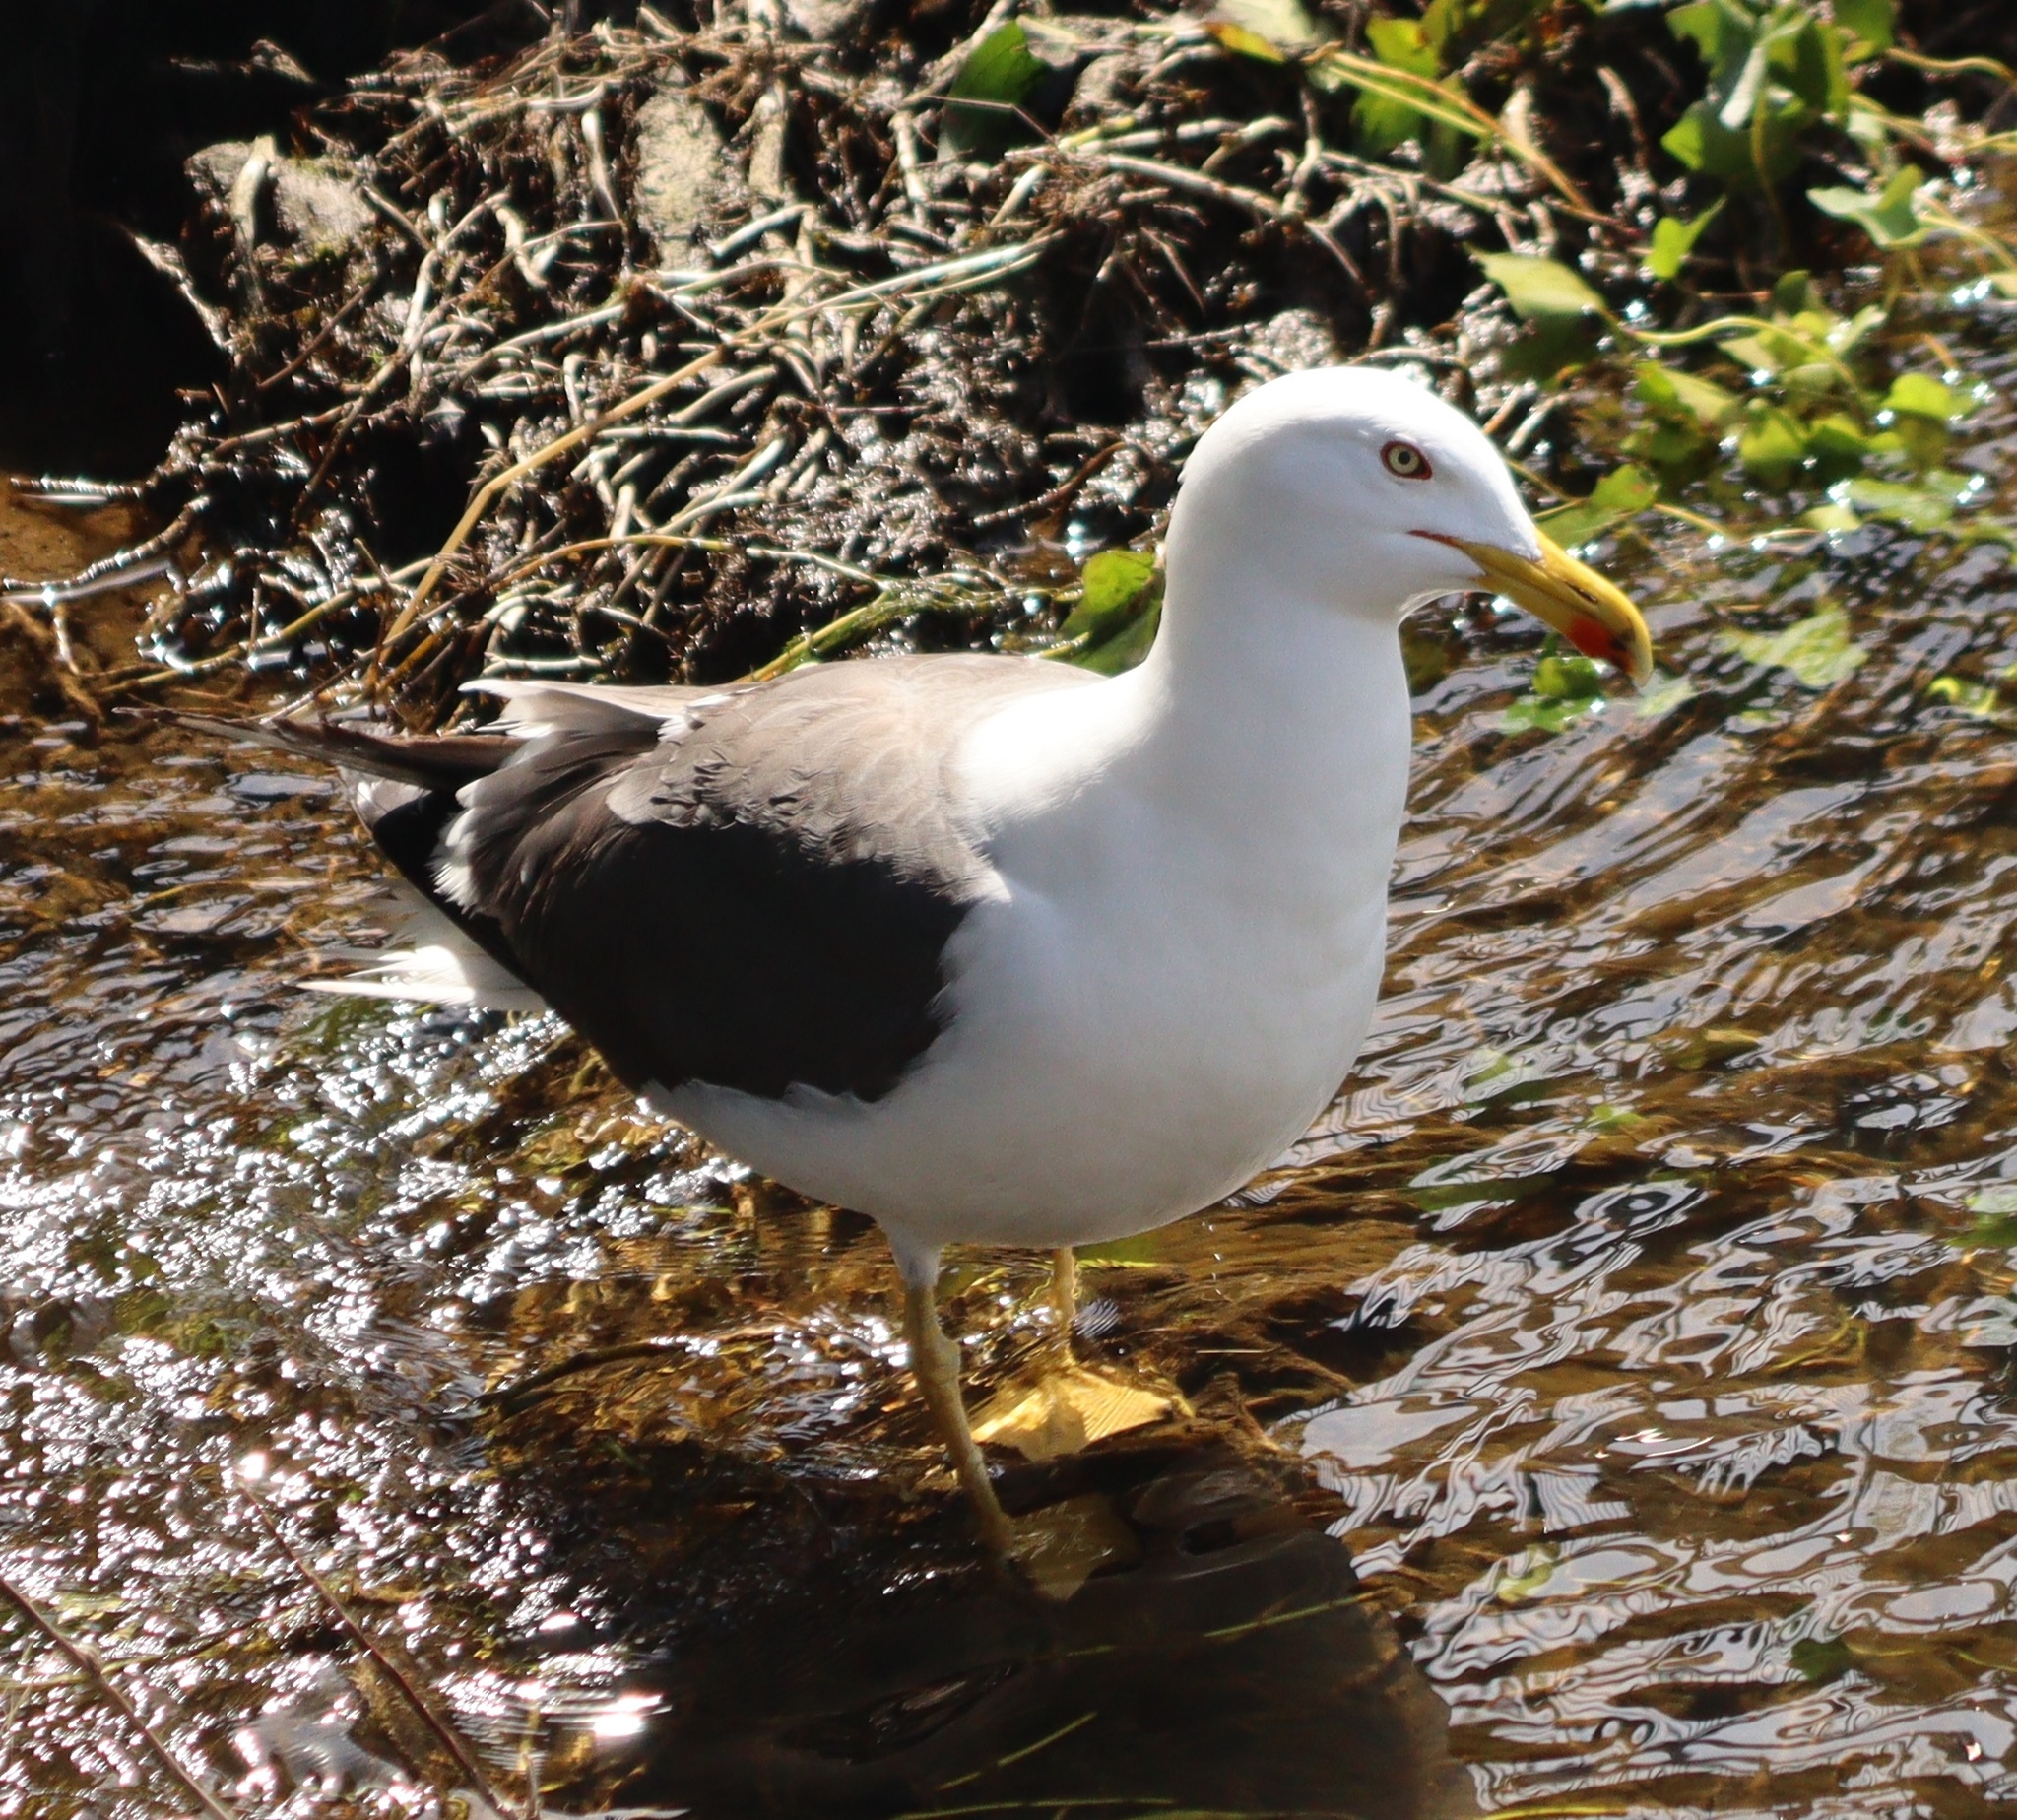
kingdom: Animalia
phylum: Chordata
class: Aves
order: Charadriiformes
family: Laridae
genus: Larus
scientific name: Larus fuscus
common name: Lesser black-backed gull
